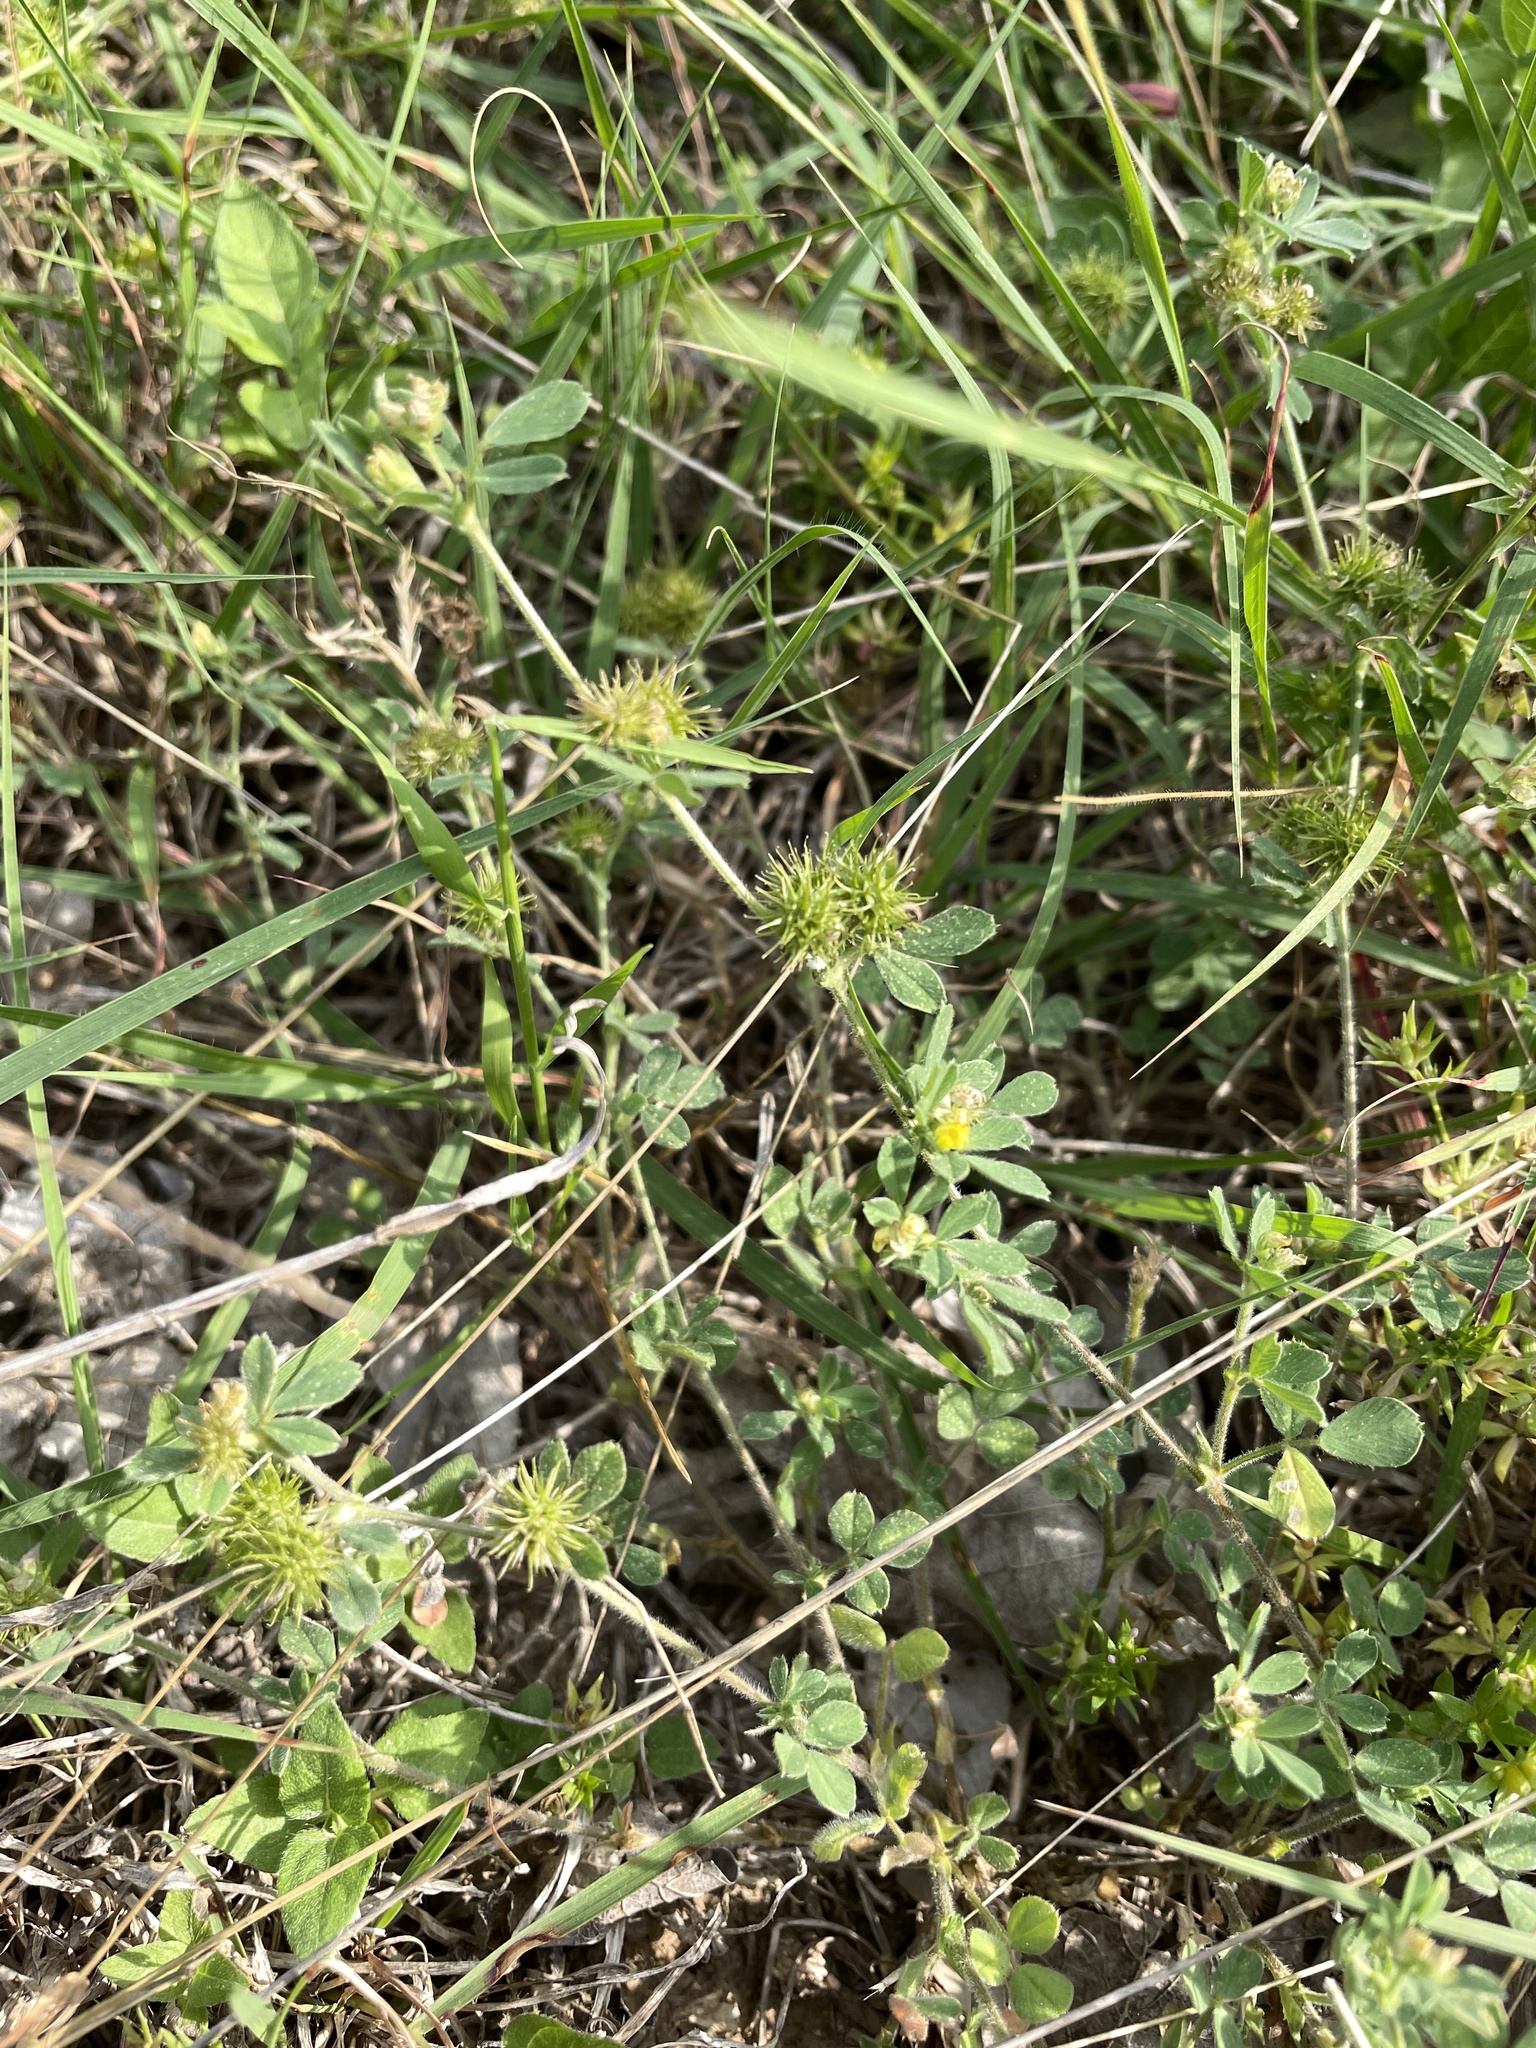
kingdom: Plantae
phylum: Tracheophyta
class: Magnoliopsida
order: Fabales
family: Fabaceae
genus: Medicago
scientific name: Medicago minima
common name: Little bur-clover
